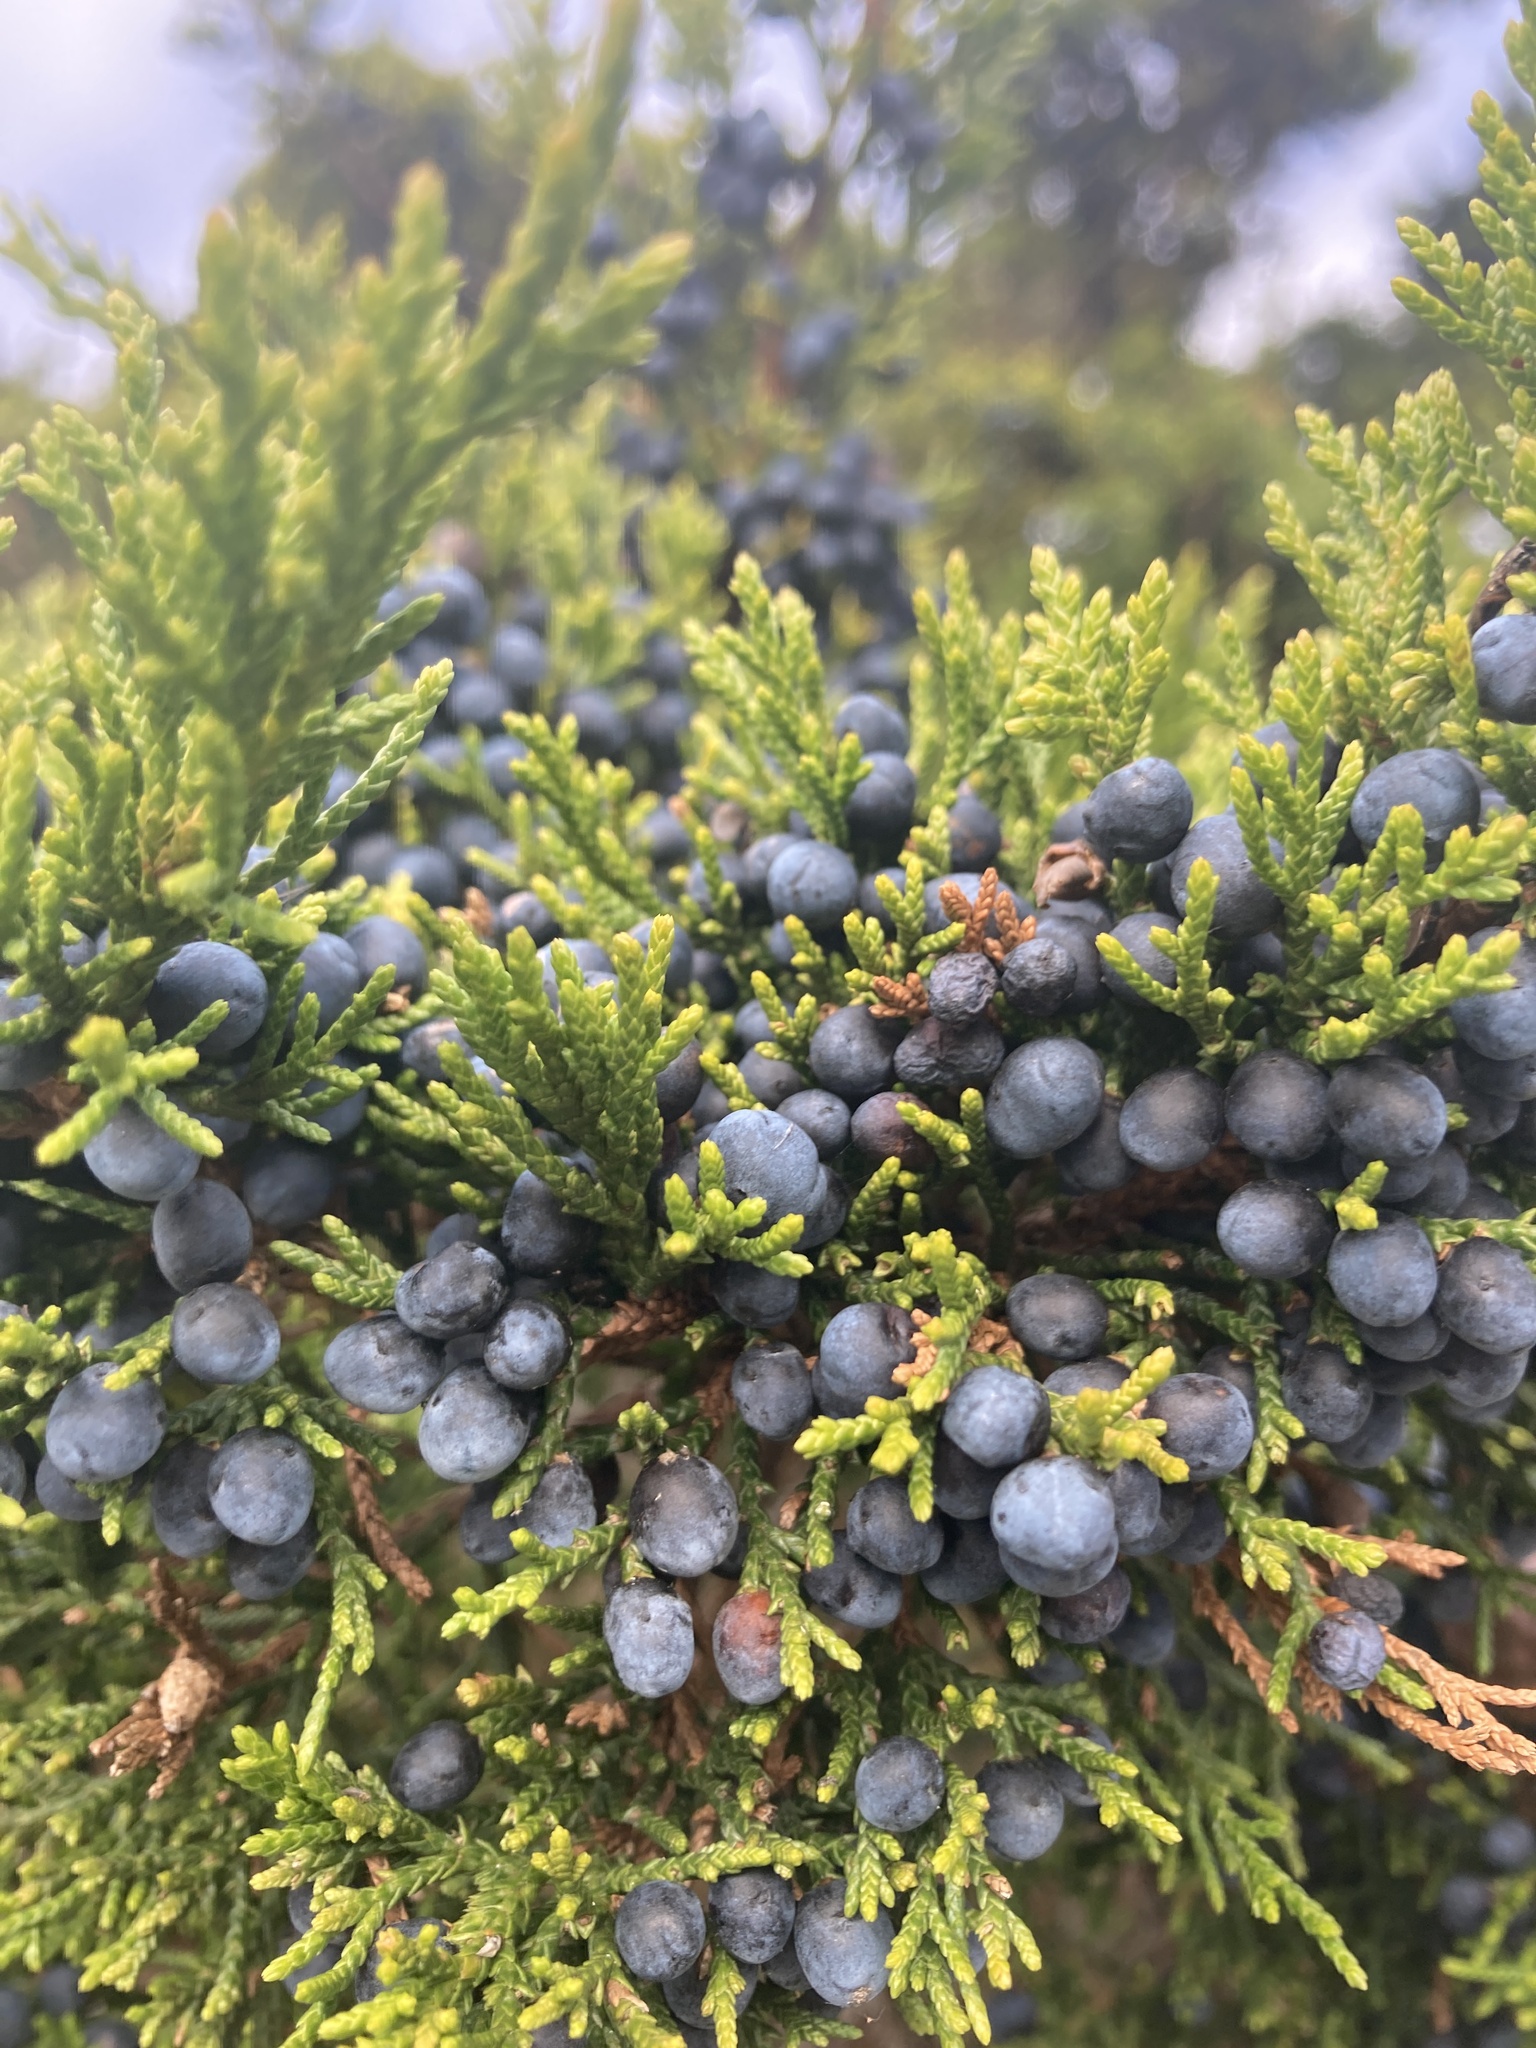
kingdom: Plantae
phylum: Tracheophyta
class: Pinopsida
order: Pinales
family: Cupressaceae
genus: Juniperus
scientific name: Juniperus virginiana
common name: Red juniper
